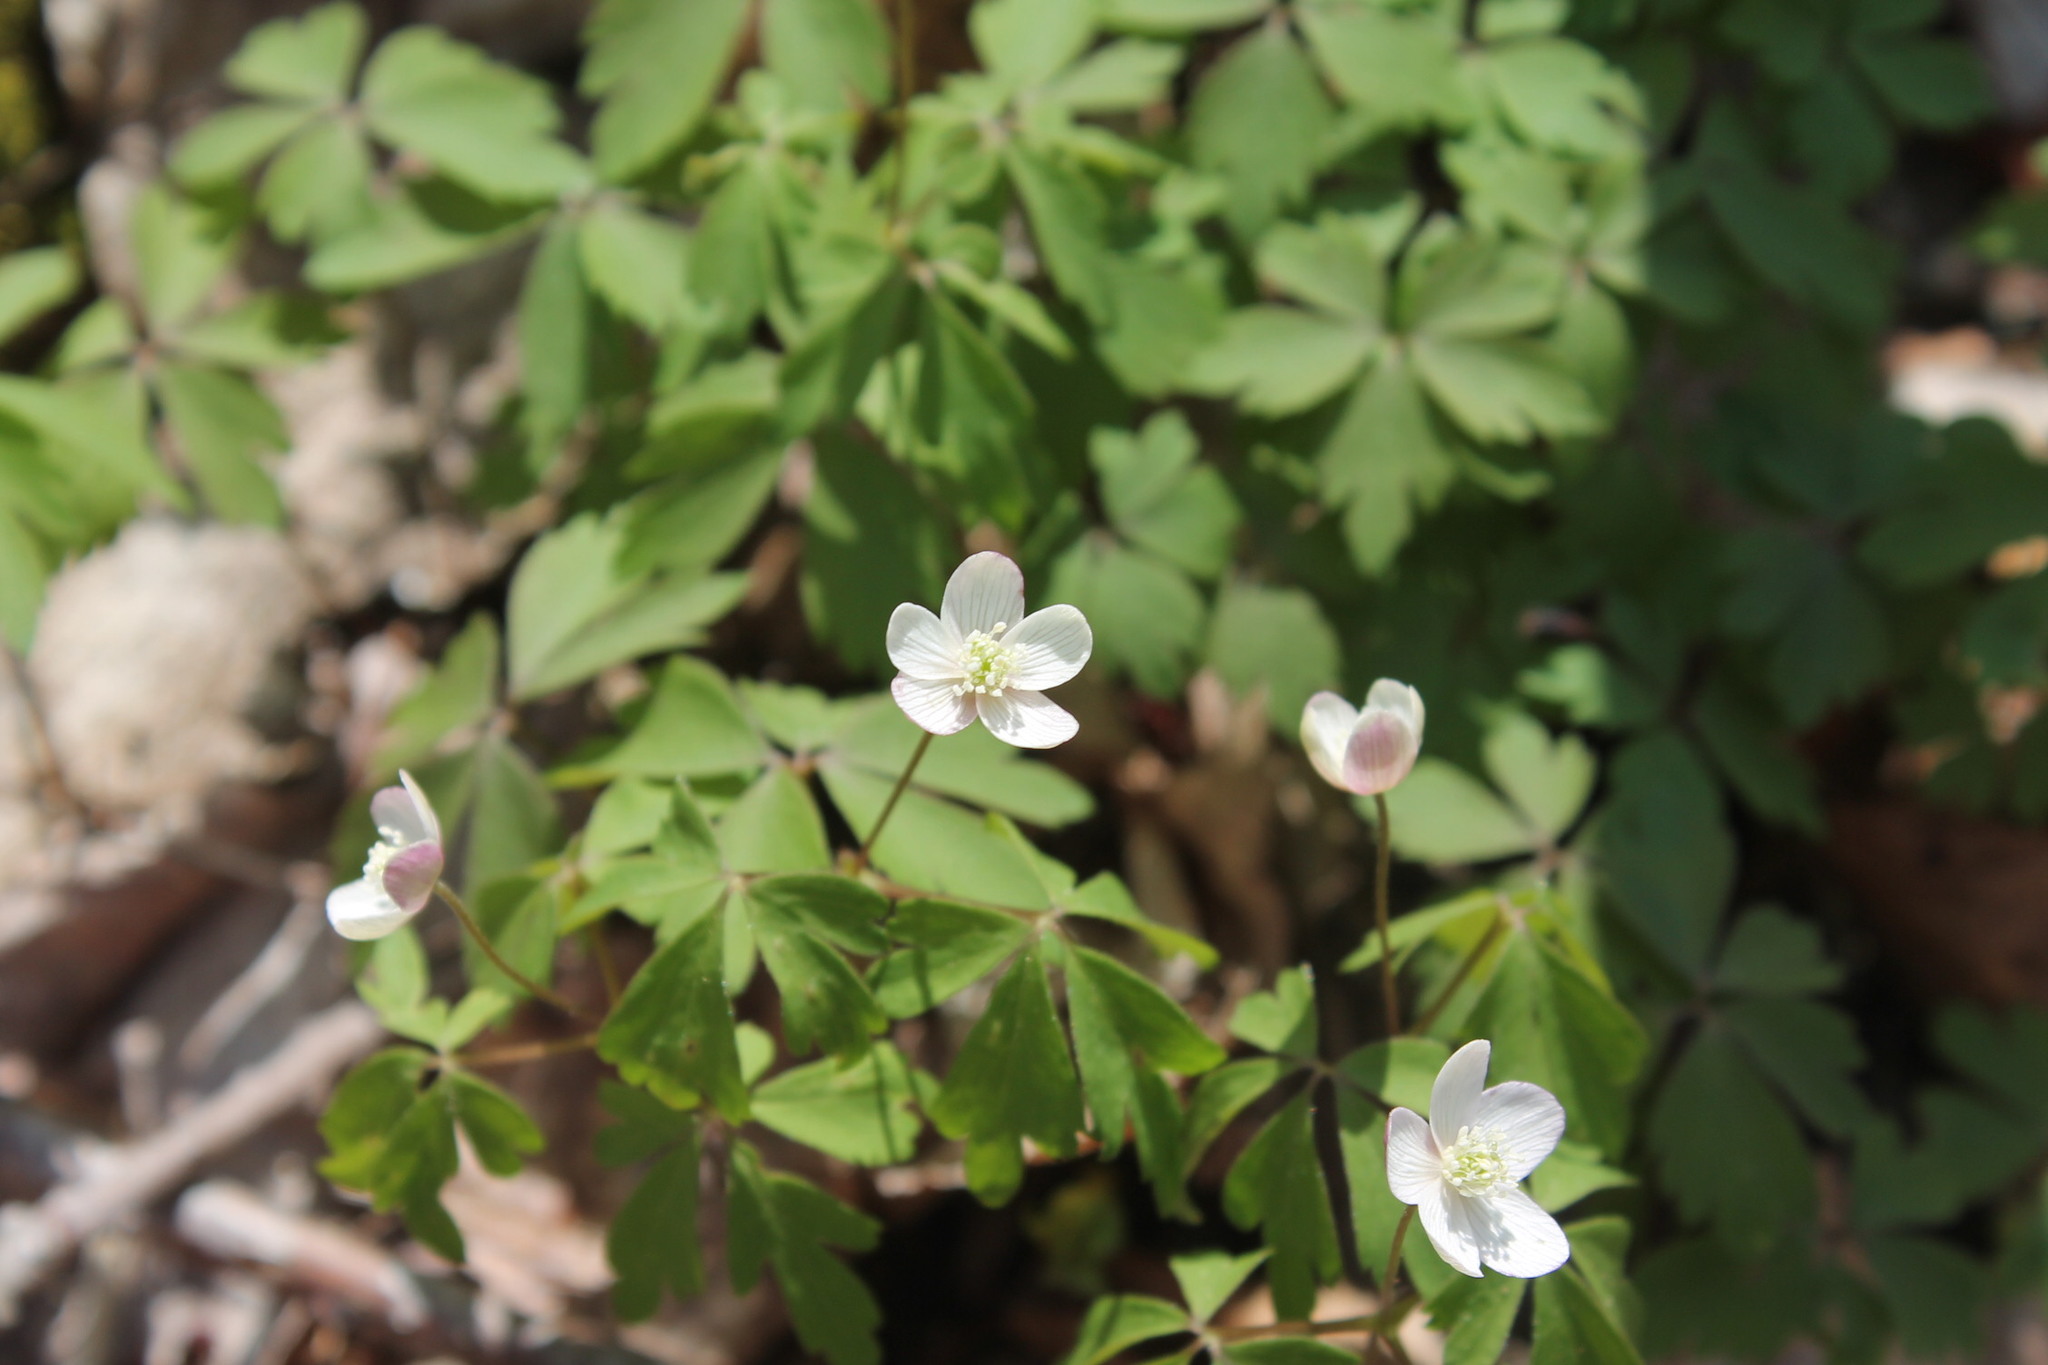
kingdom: Plantae
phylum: Tracheophyta
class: Magnoliopsida
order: Ranunculales
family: Ranunculaceae
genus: Anemone
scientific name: Anemone quinquefolia
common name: Wood anemone
